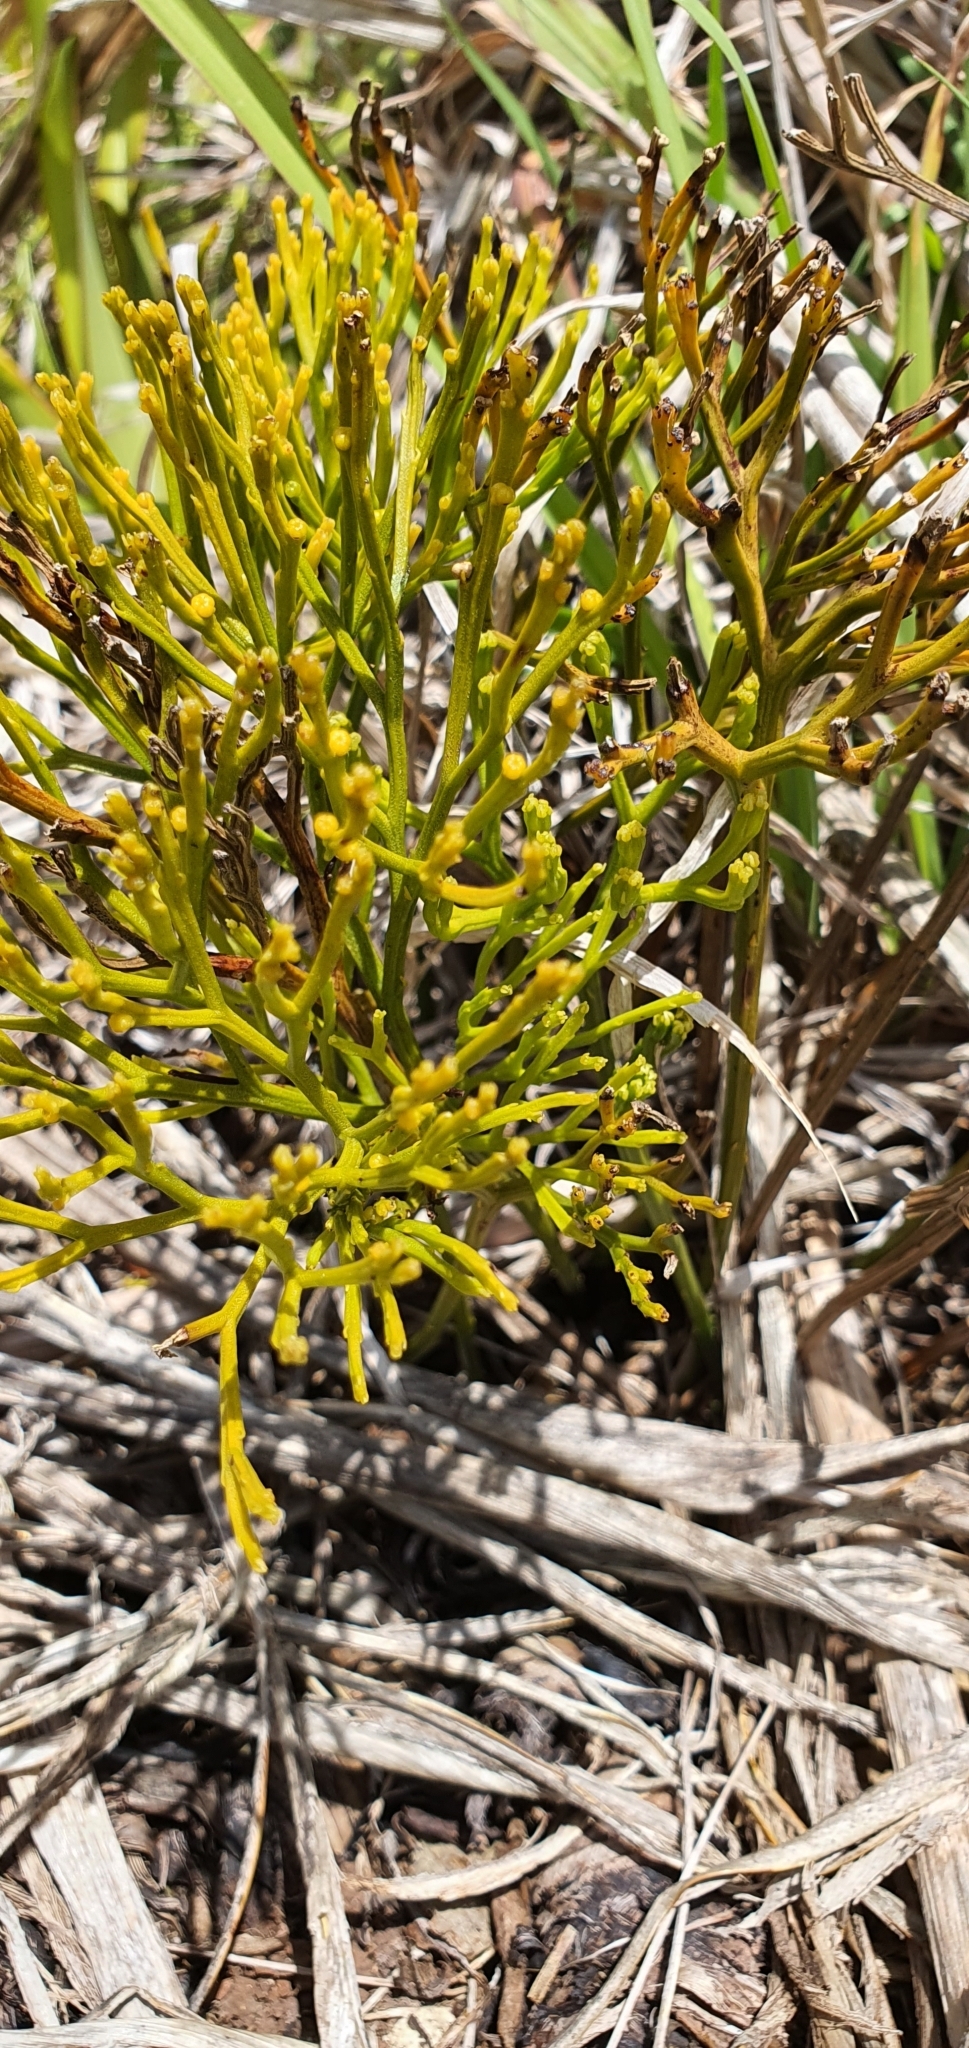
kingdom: Plantae
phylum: Tracheophyta
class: Polypodiopsida
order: Psilotales
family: Psilotaceae
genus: Psilotum
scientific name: Psilotum nudum
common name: Skeleton fork fern
